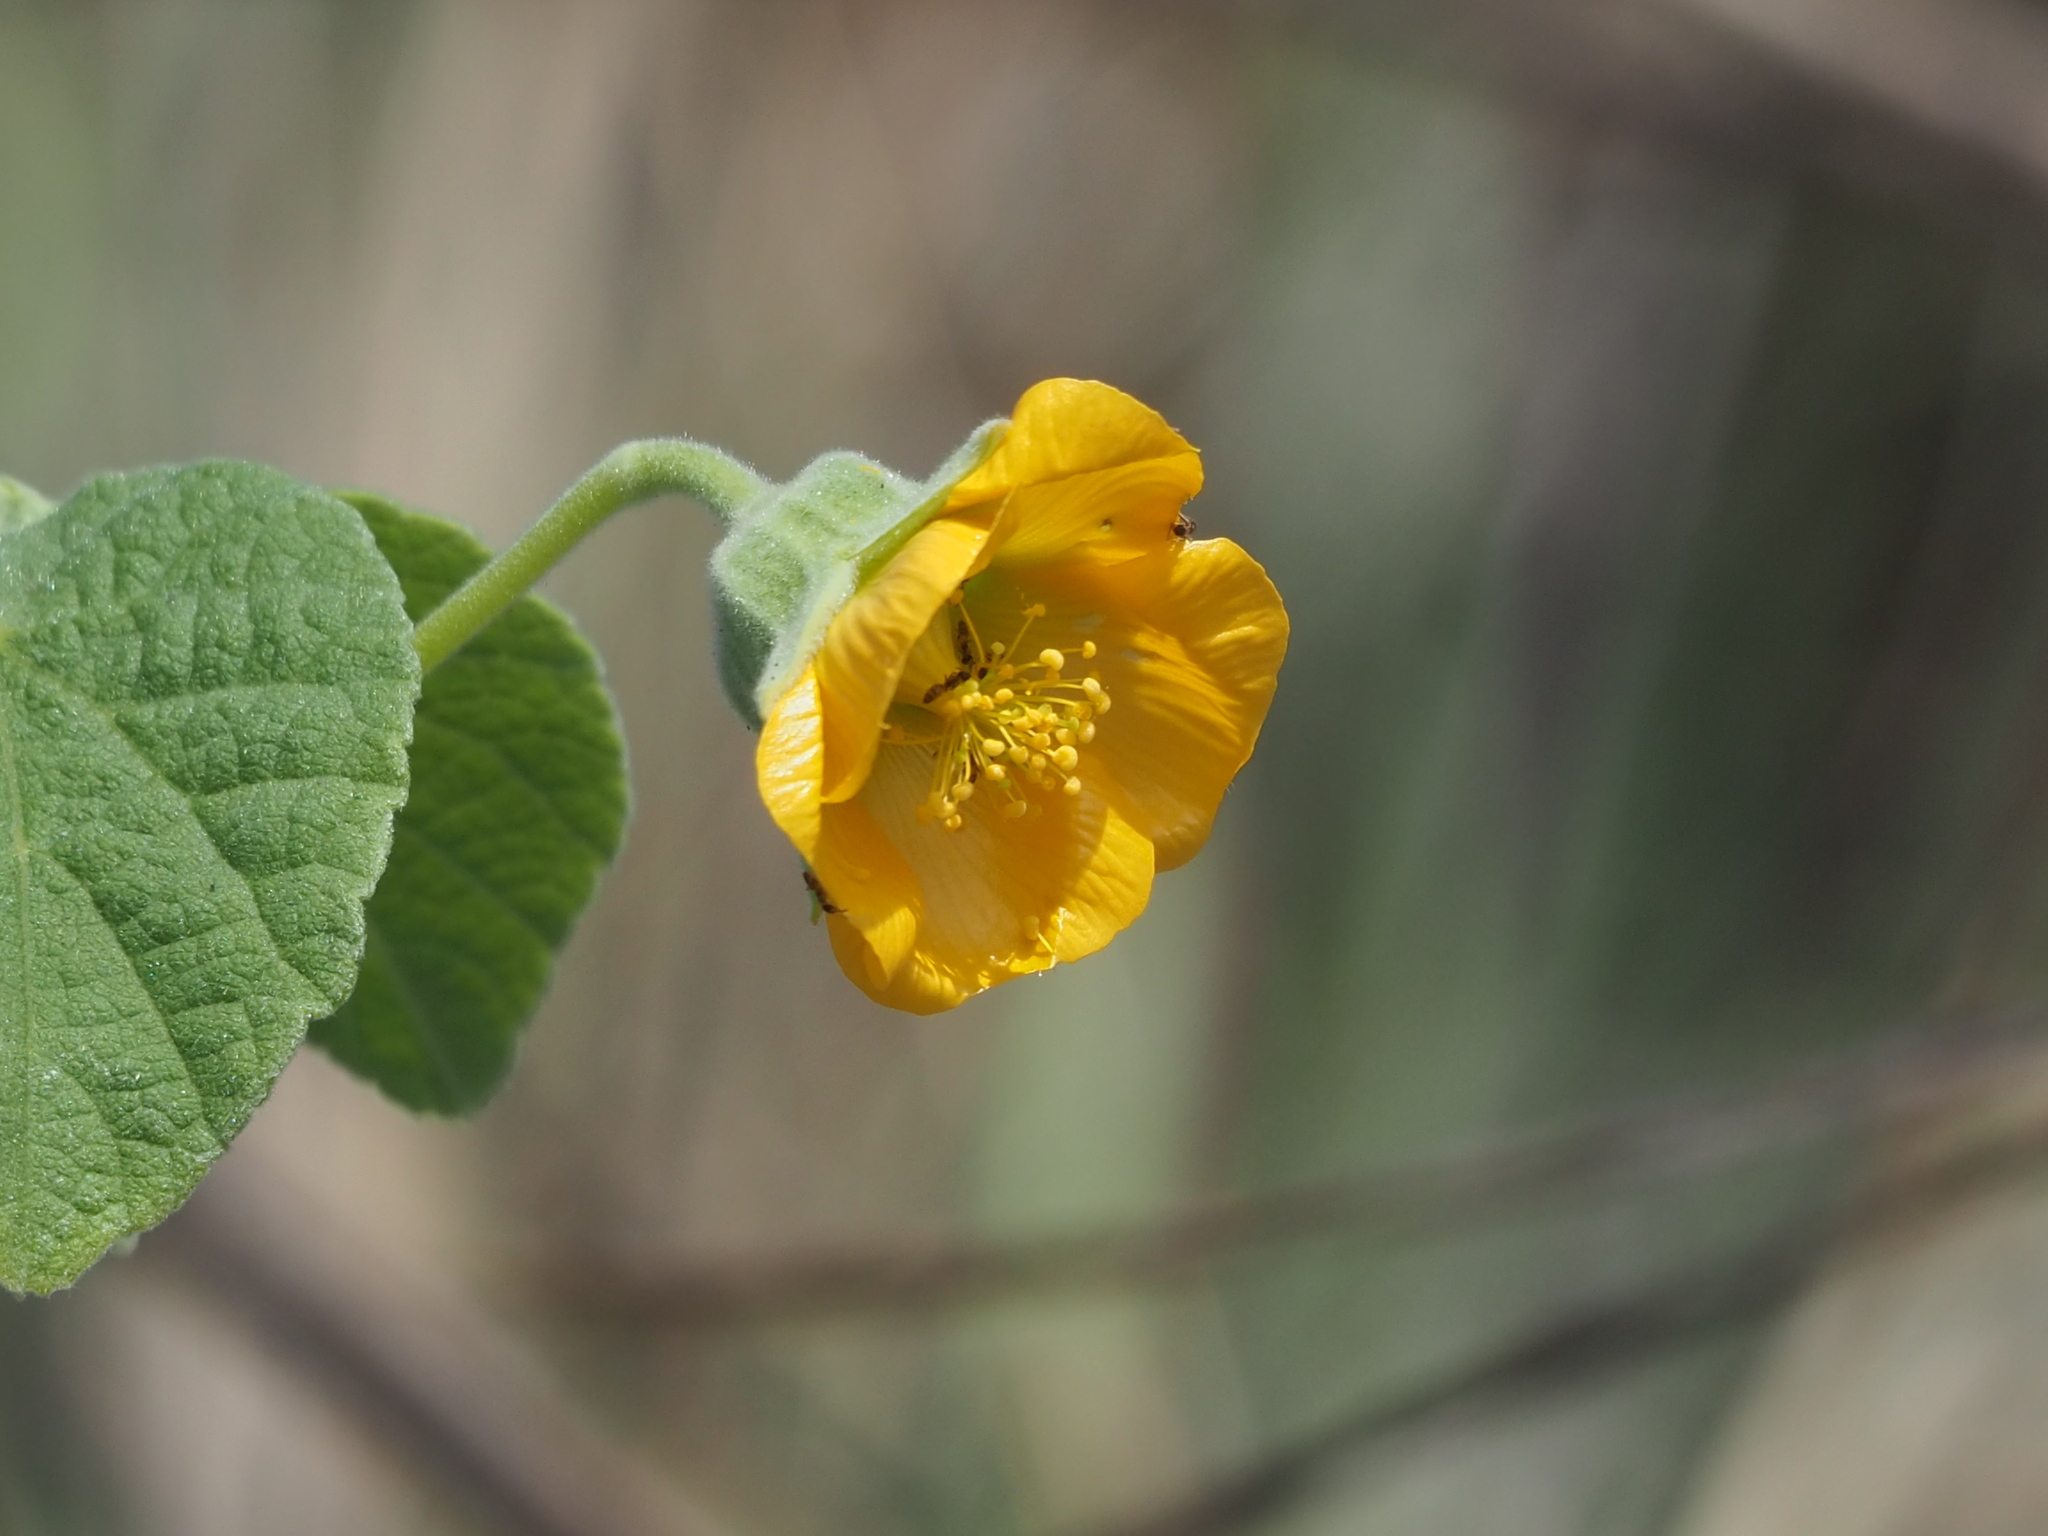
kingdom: Plantae
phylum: Tracheophyta
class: Magnoliopsida
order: Malvales
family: Malvaceae
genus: Abutilon
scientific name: Abutilon guineense
